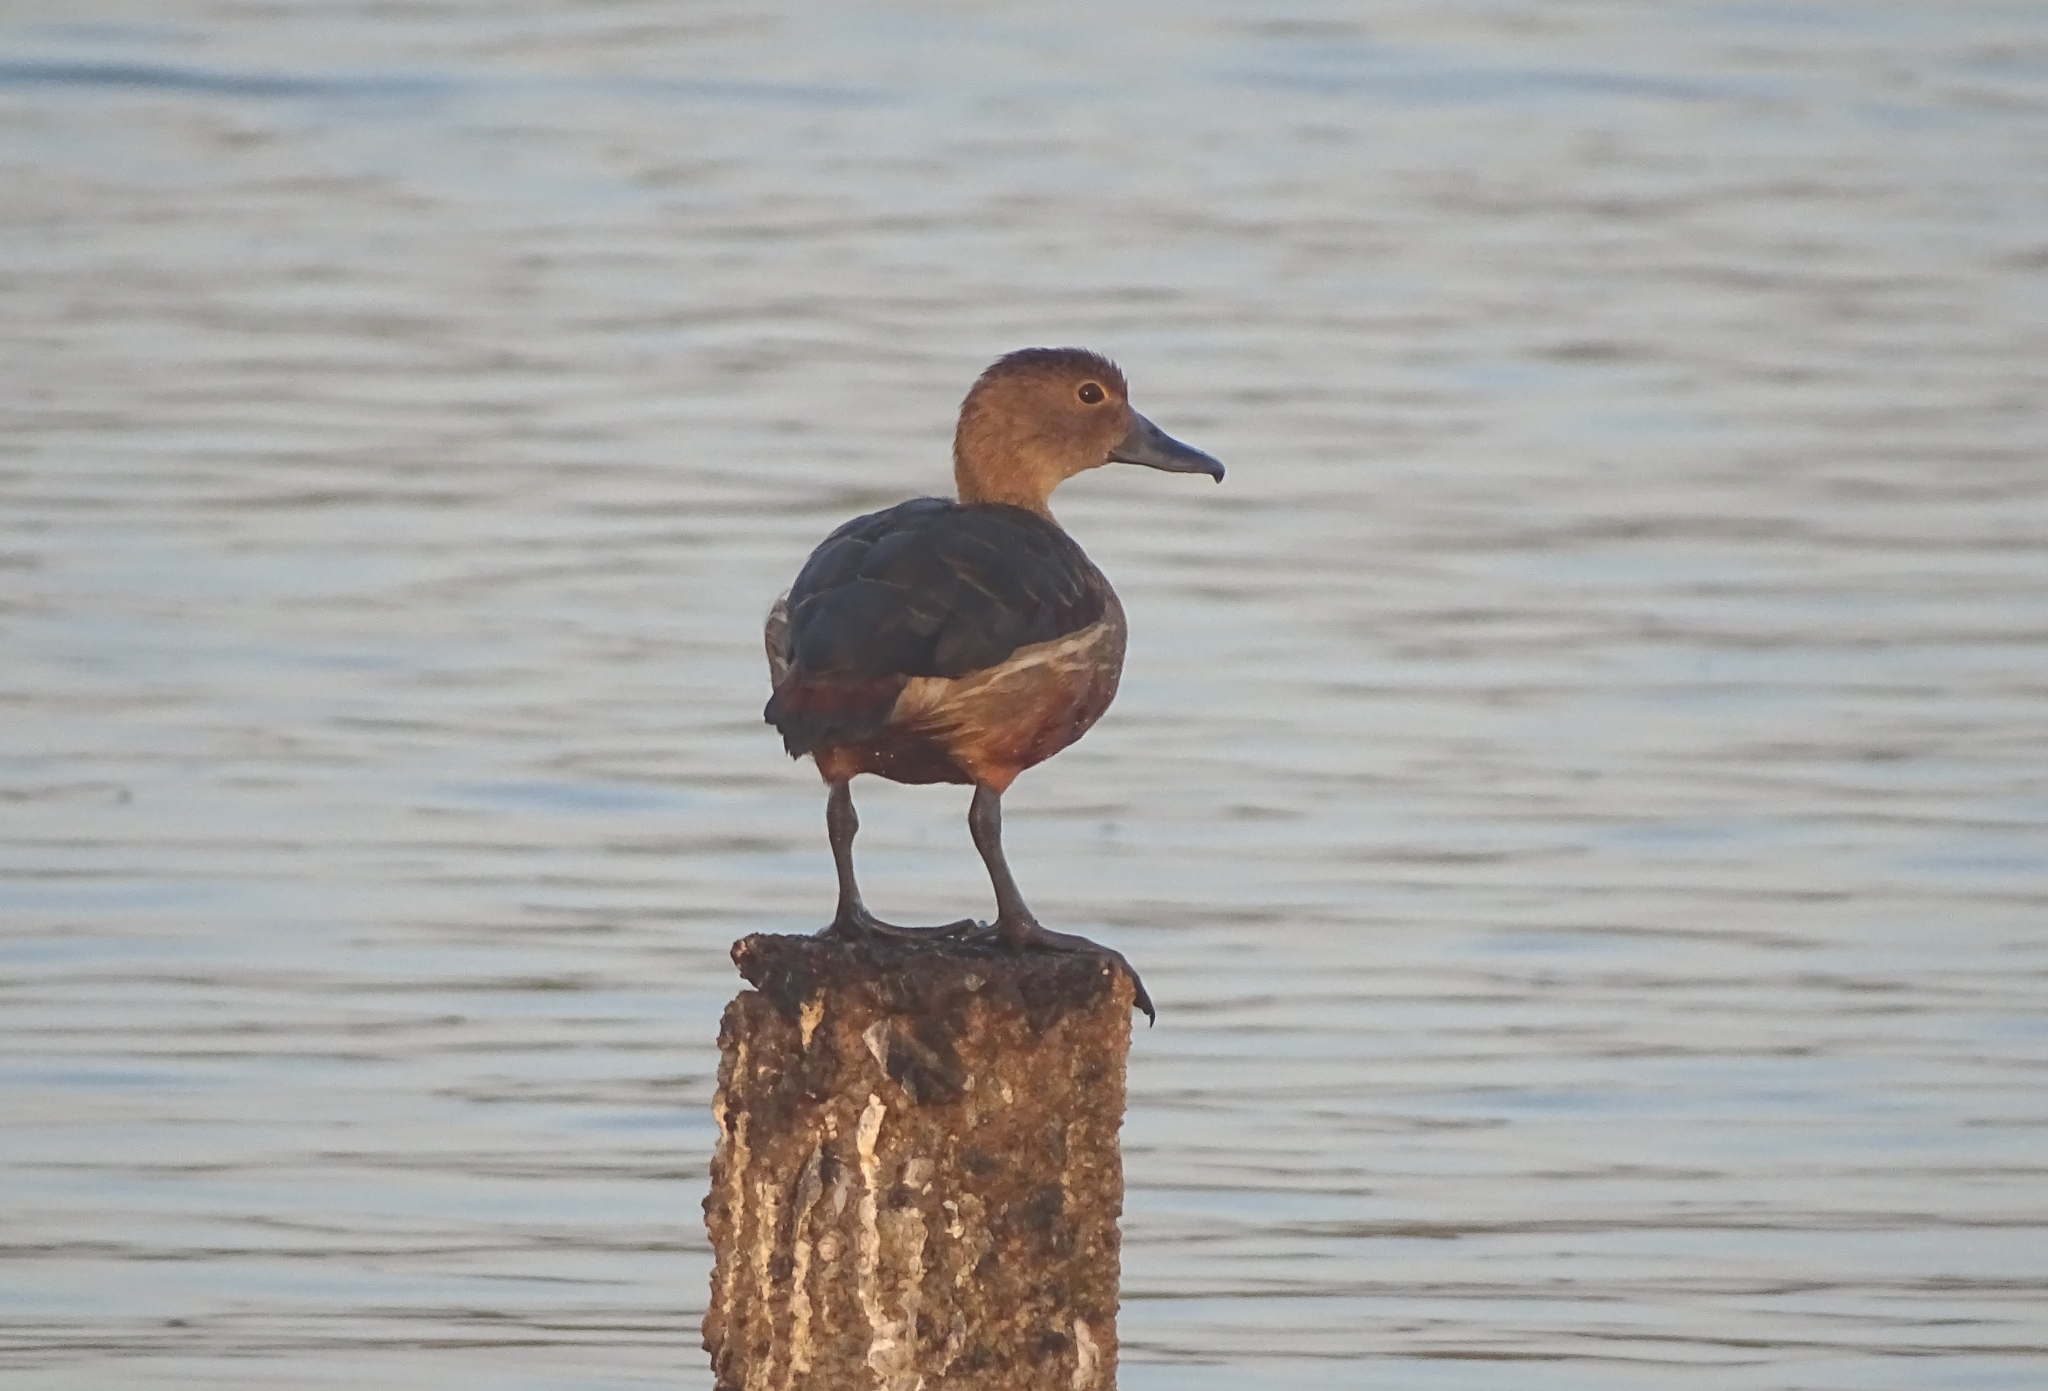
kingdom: Animalia
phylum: Chordata
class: Aves
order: Anseriformes
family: Anatidae
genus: Dendrocygna
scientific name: Dendrocygna javanica
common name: Lesser whistling-duck
